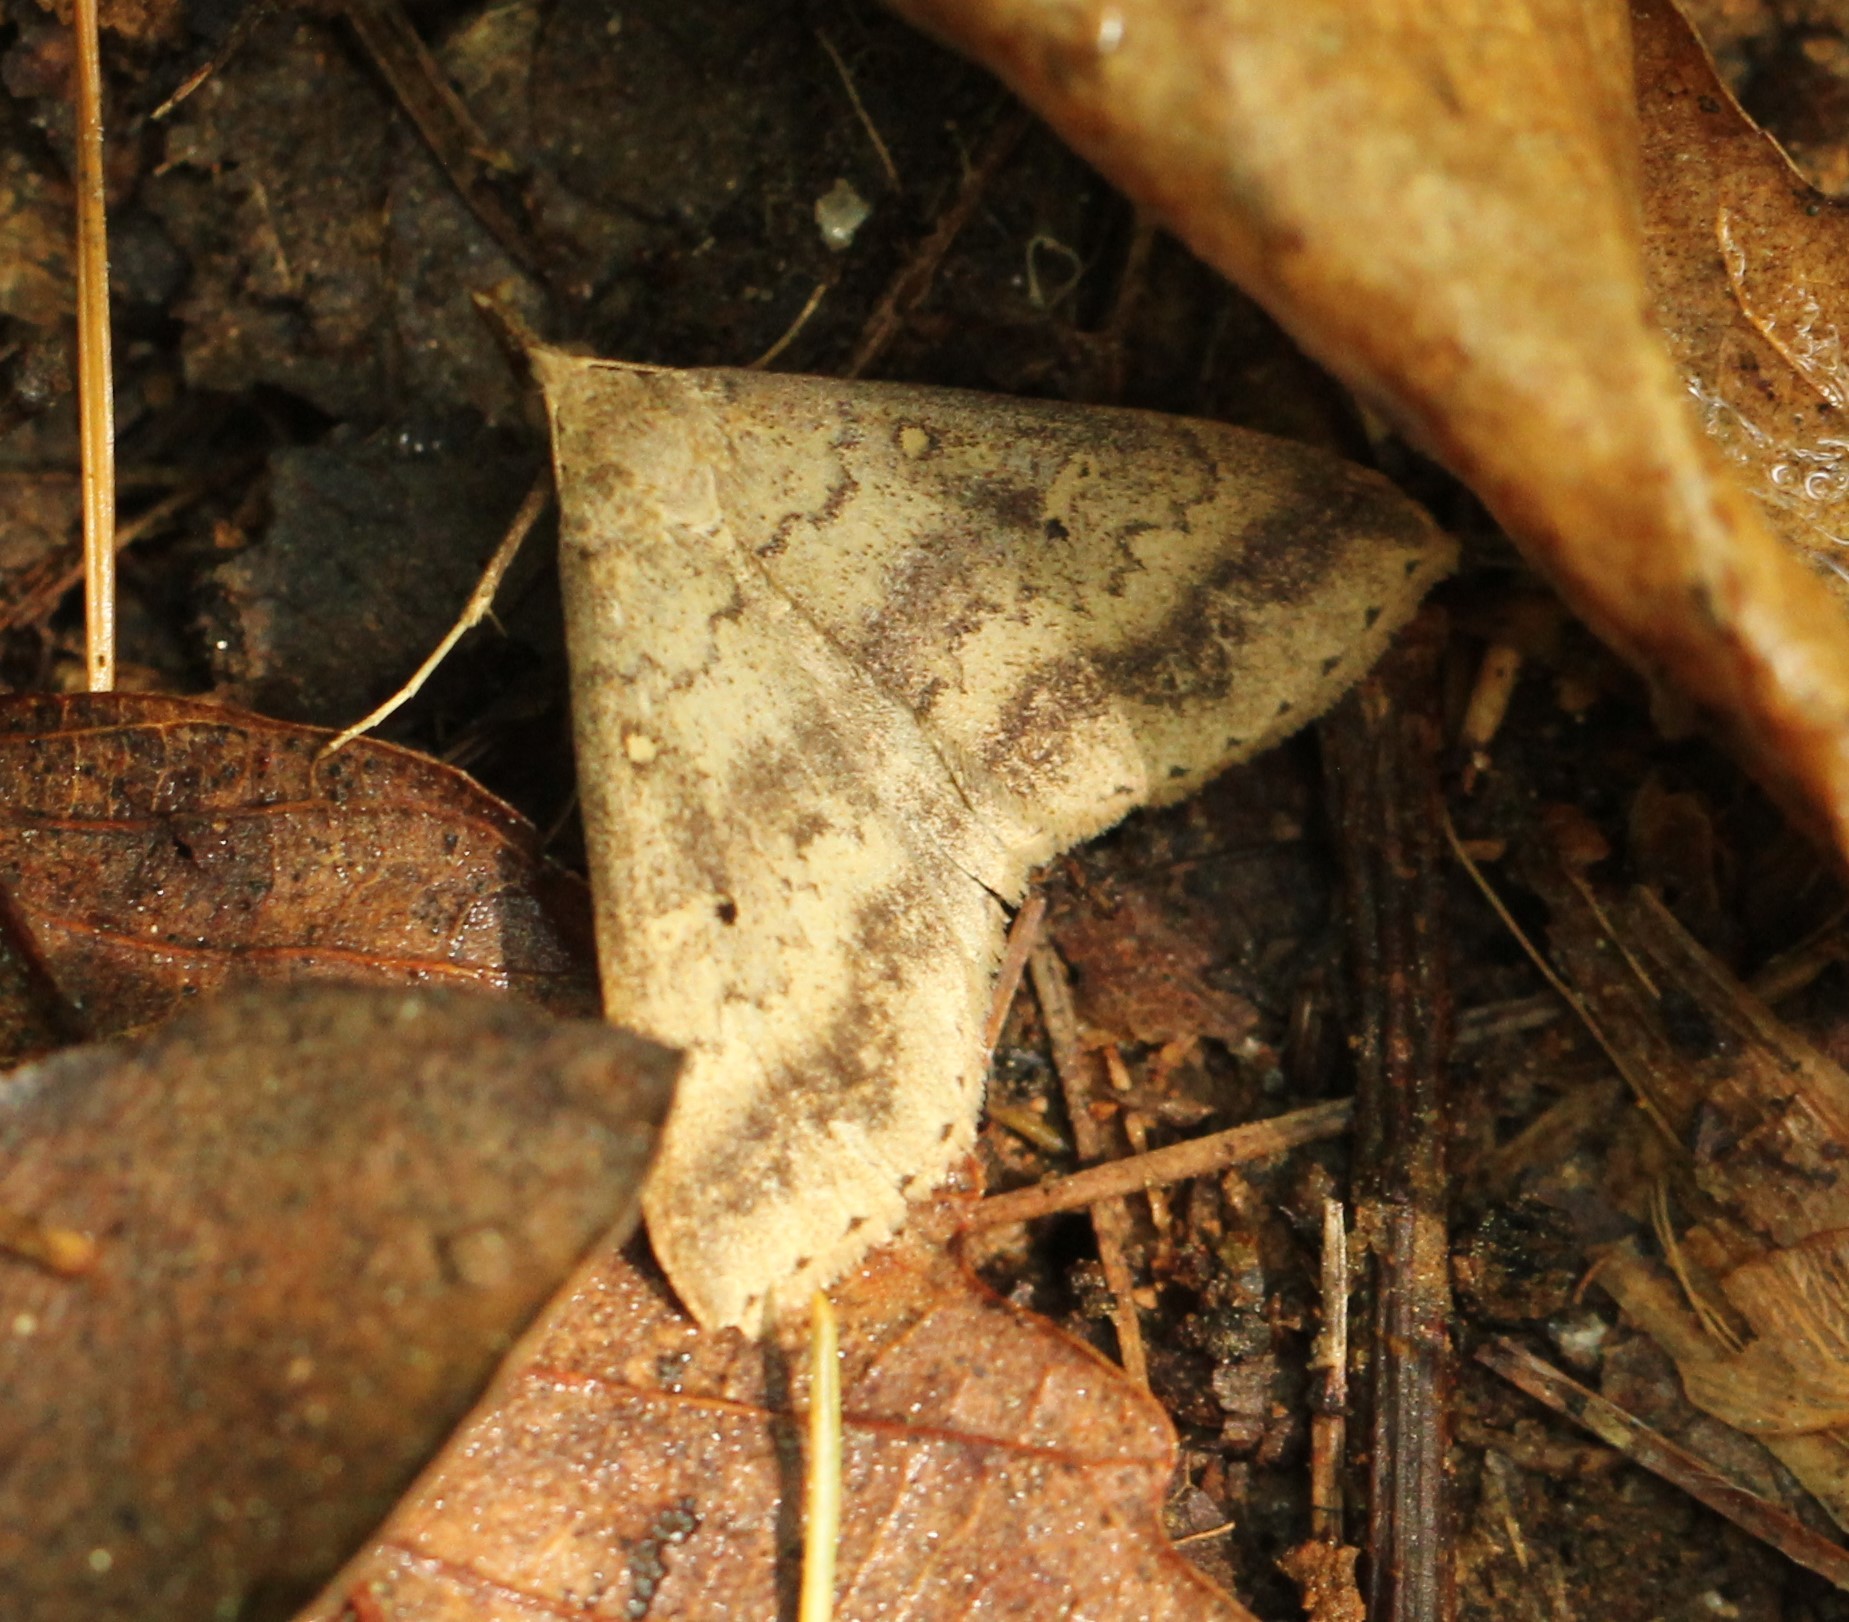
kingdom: Animalia
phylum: Arthropoda
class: Insecta
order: Lepidoptera
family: Erebidae
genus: Renia
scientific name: Renia discoloralis
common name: Discolored renia moth
